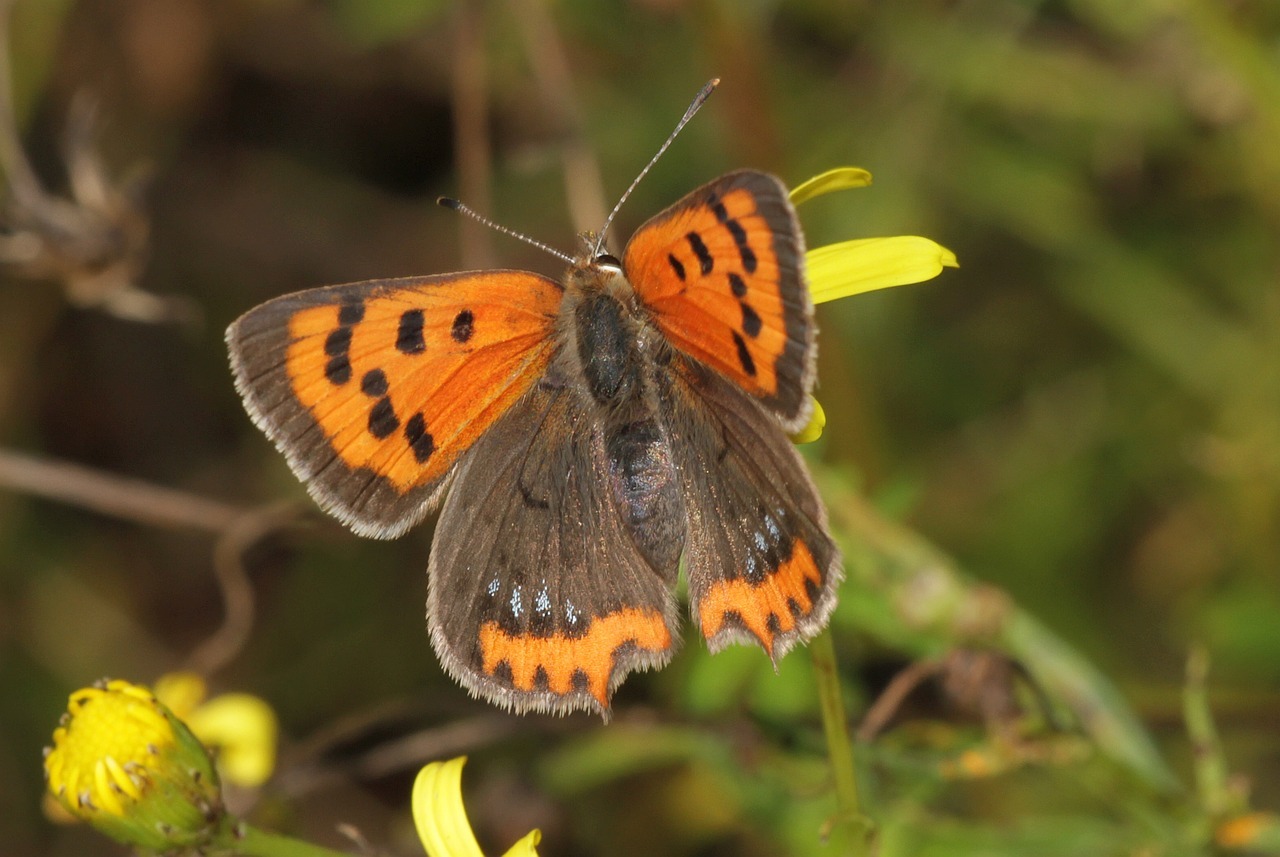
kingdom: Animalia
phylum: Arthropoda
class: Insecta
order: Lepidoptera
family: Lycaenidae
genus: Lycaena
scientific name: Lycaena phlaeas
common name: Small copper
